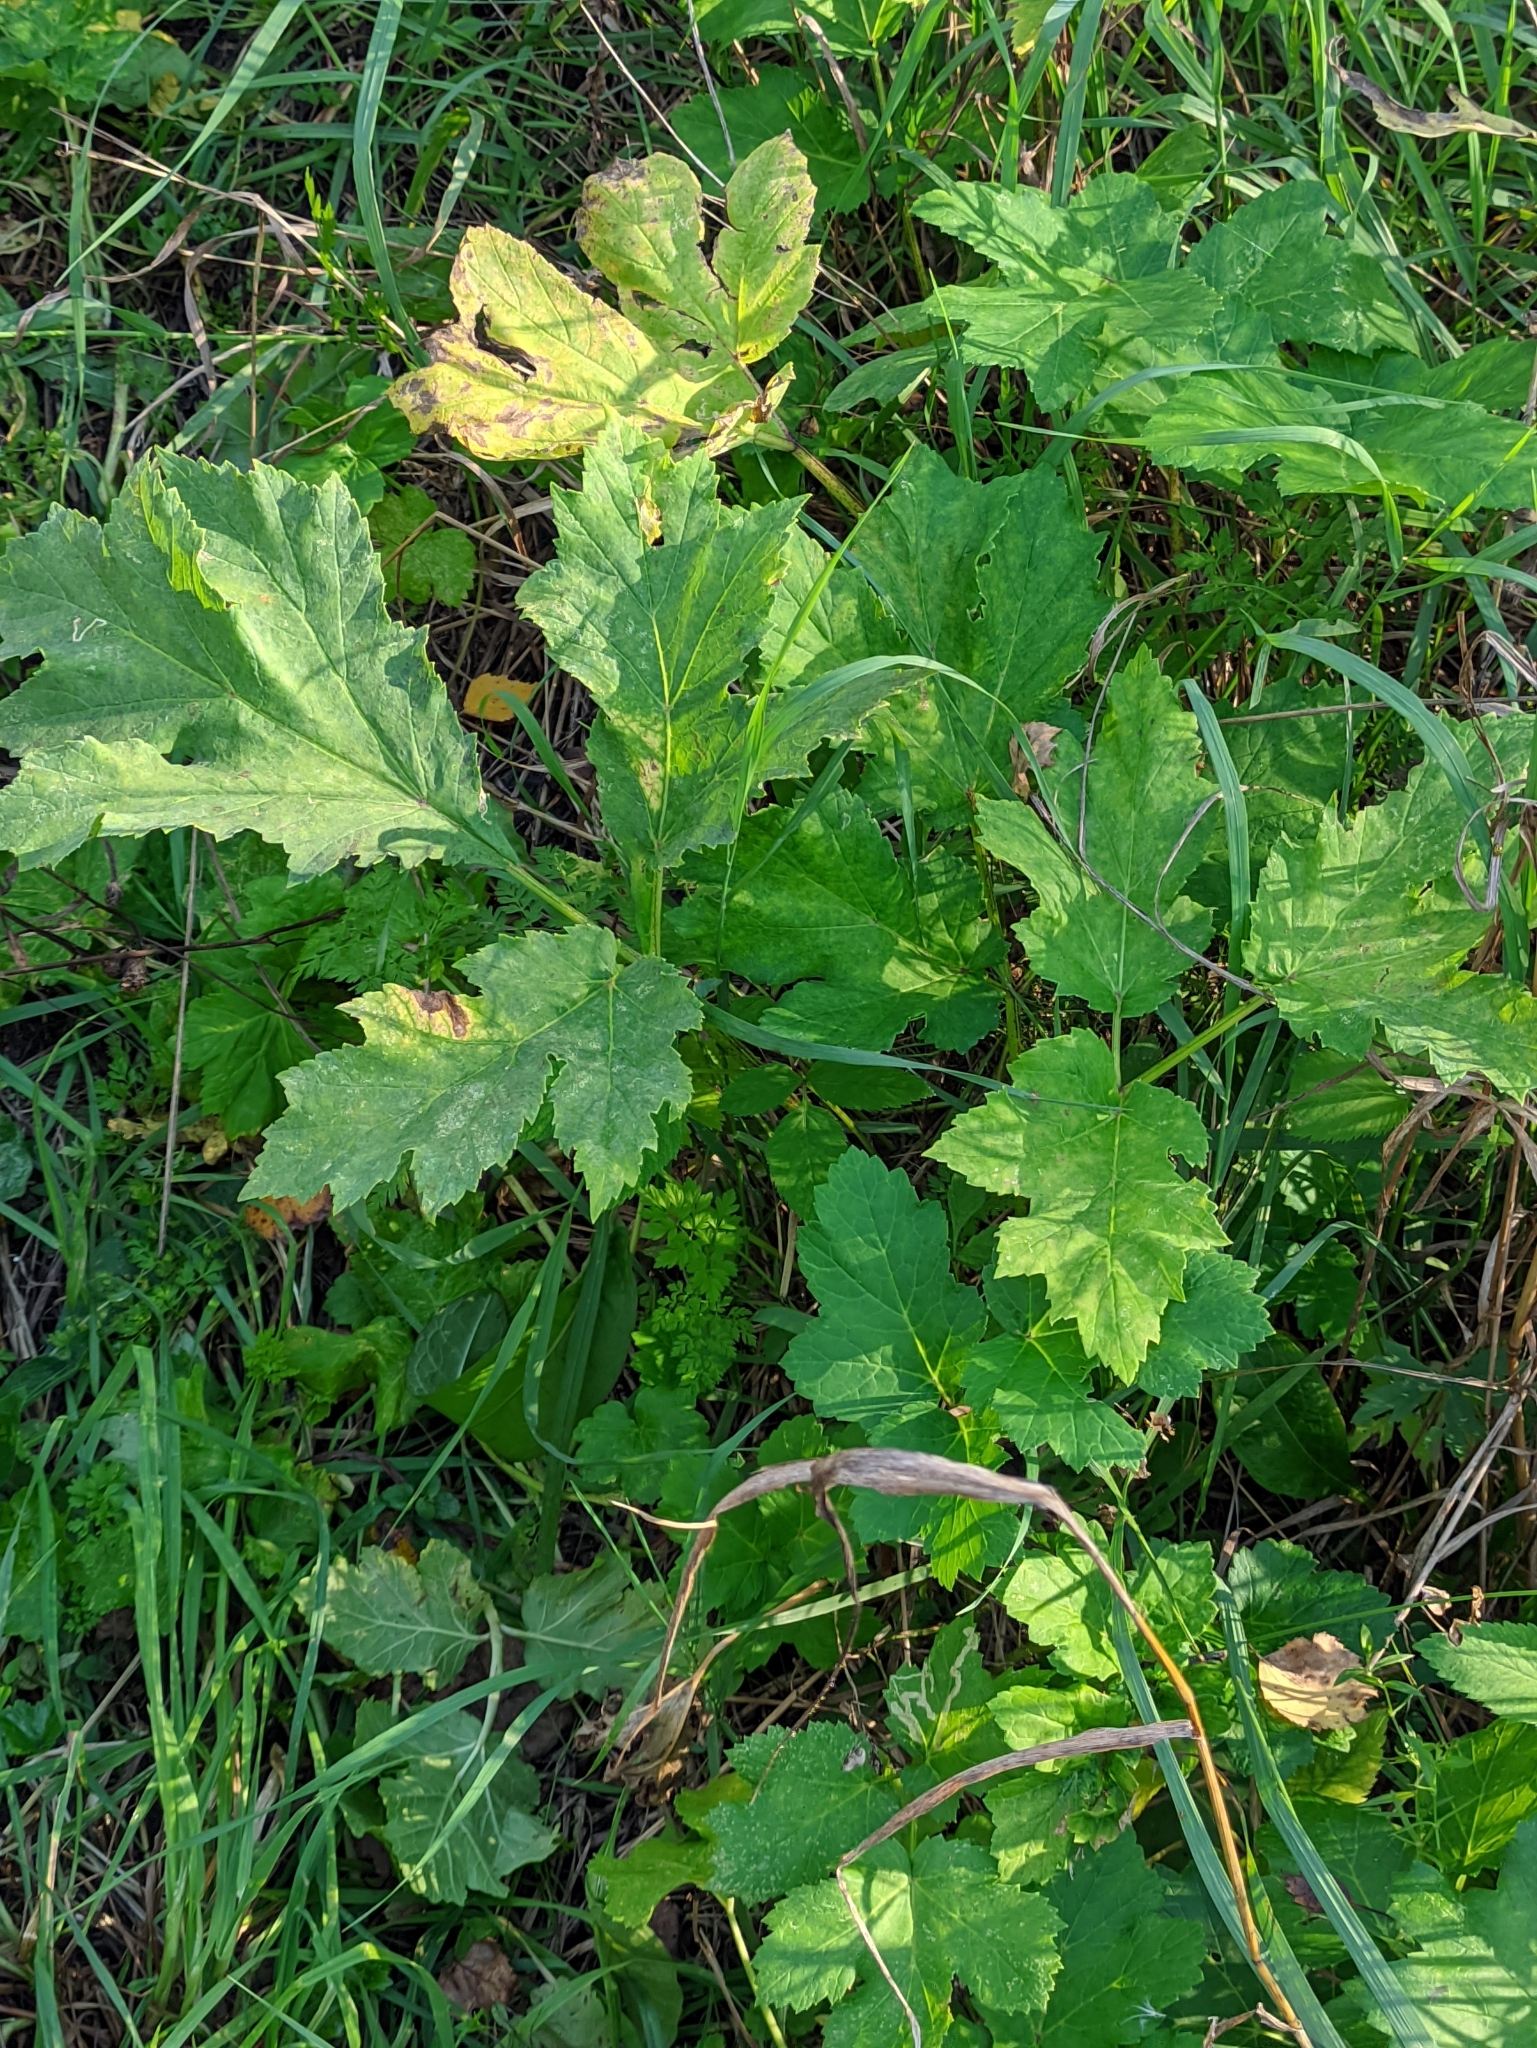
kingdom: Plantae
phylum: Tracheophyta
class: Magnoliopsida
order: Apiales
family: Apiaceae
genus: Heracleum
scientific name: Heracleum sosnowskyi
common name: Sosnowsky's hogweed
